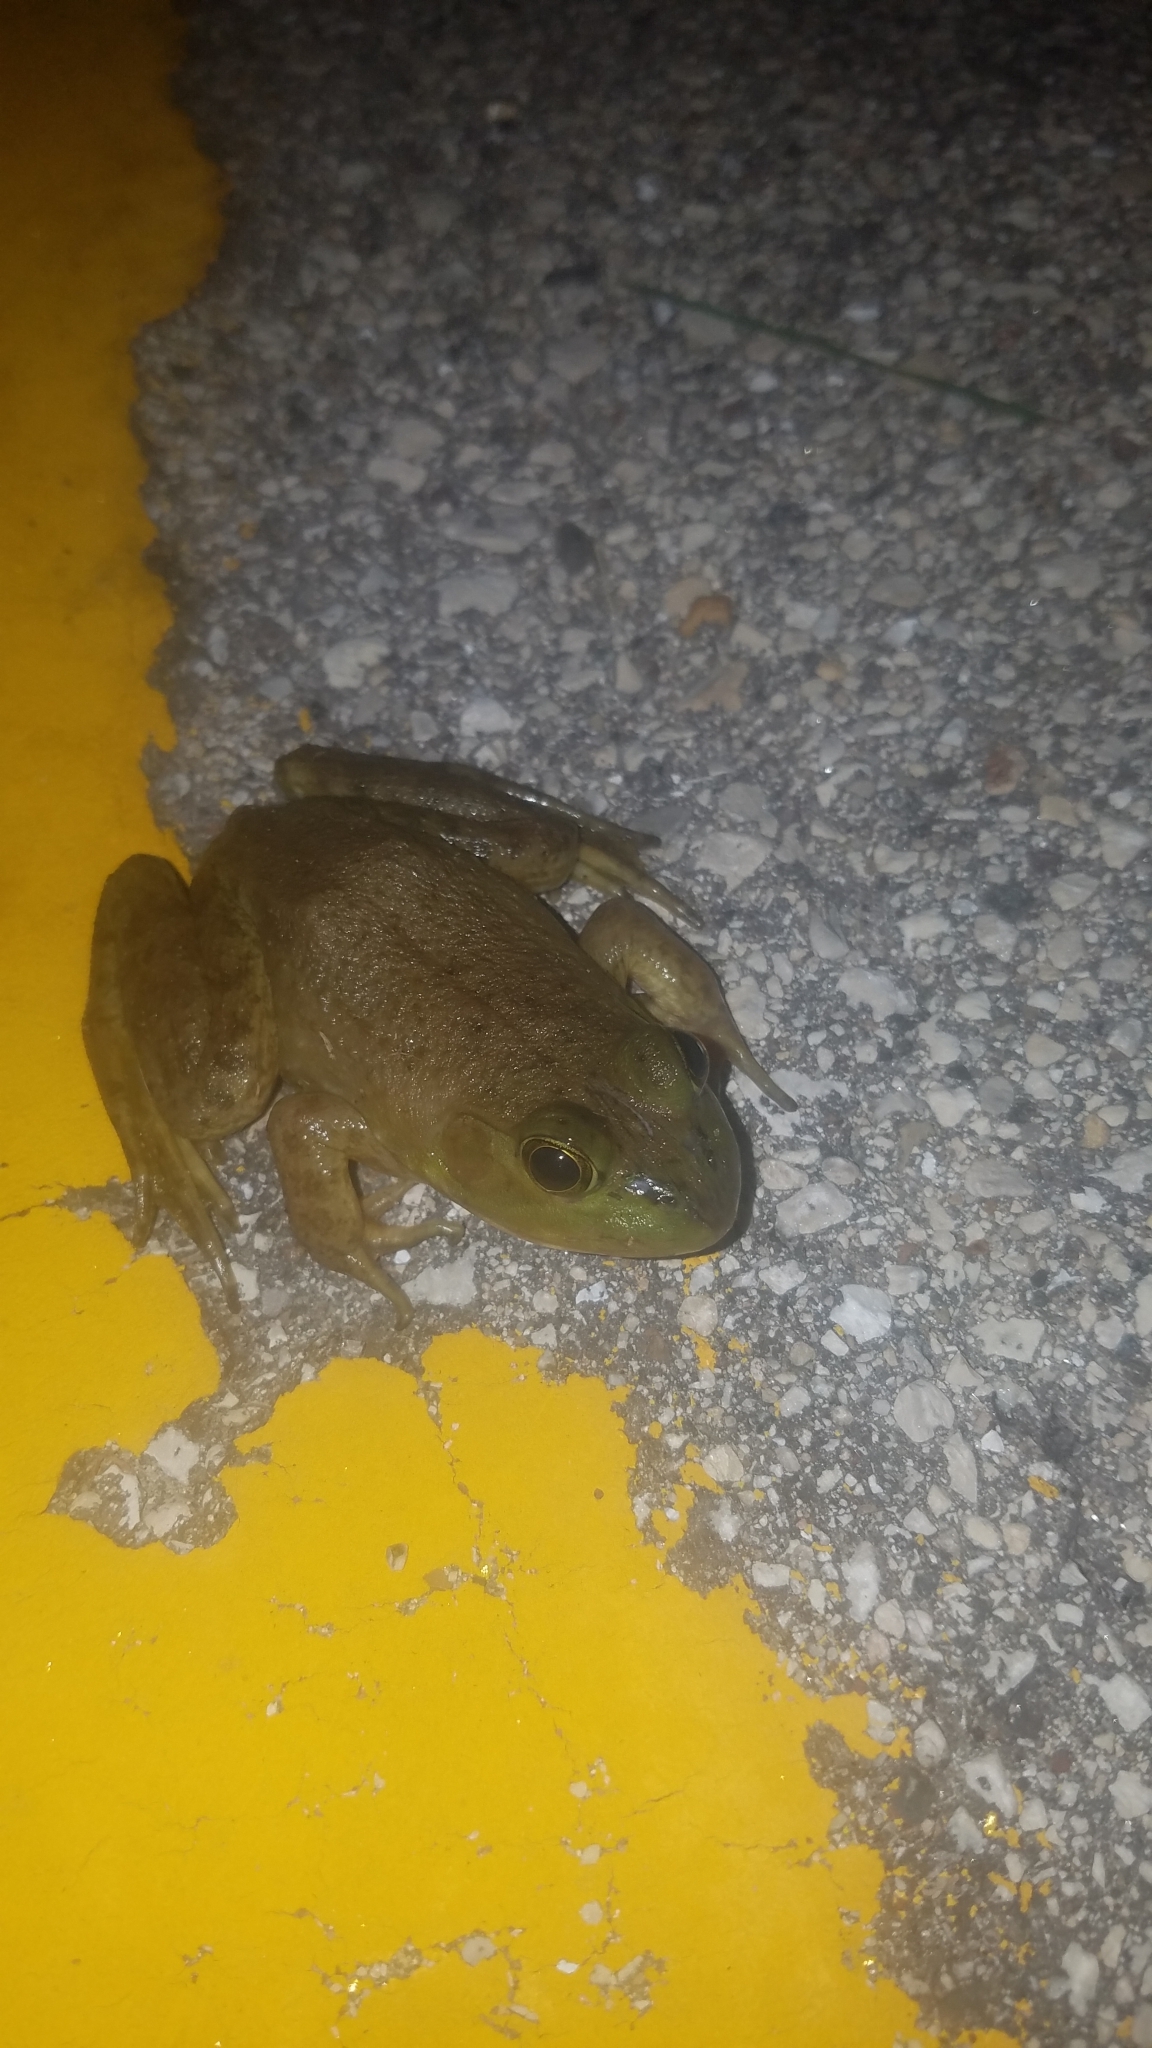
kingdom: Animalia
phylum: Chordata
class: Amphibia
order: Anura
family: Ranidae
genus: Lithobates
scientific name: Lithobates catesbeianus
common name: American bullfrog
